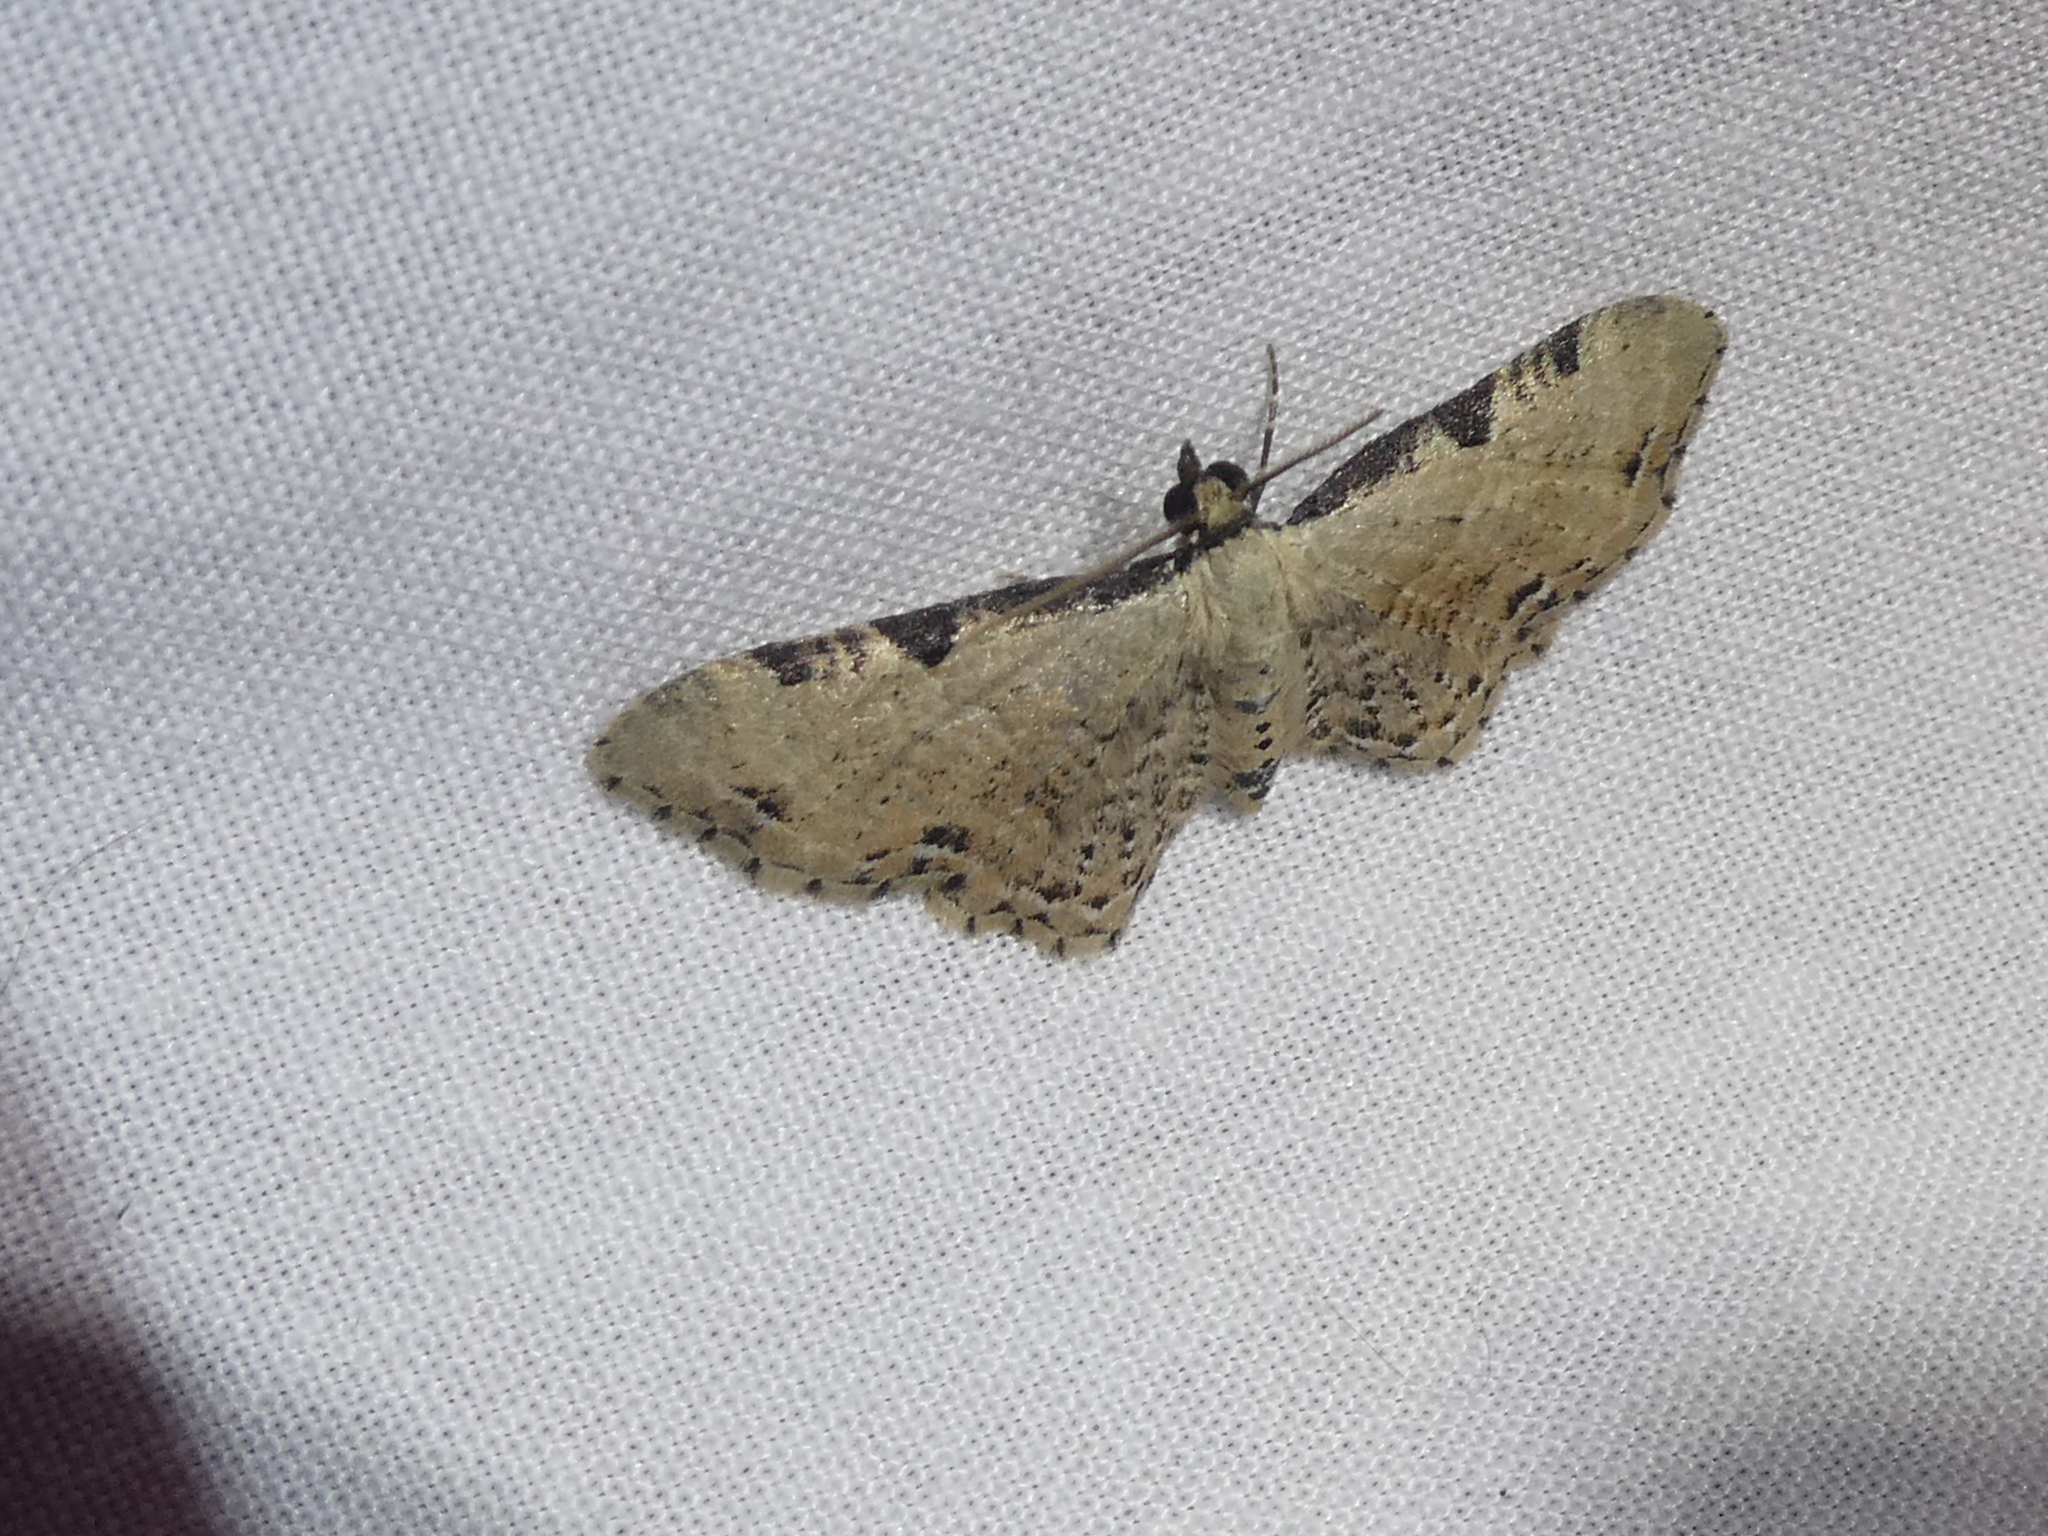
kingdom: Animalia
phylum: Arthropoda
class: Insecta
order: Lepidoptera
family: Geometridae
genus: Pasiphila
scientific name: Pasiphila fumipalpata
